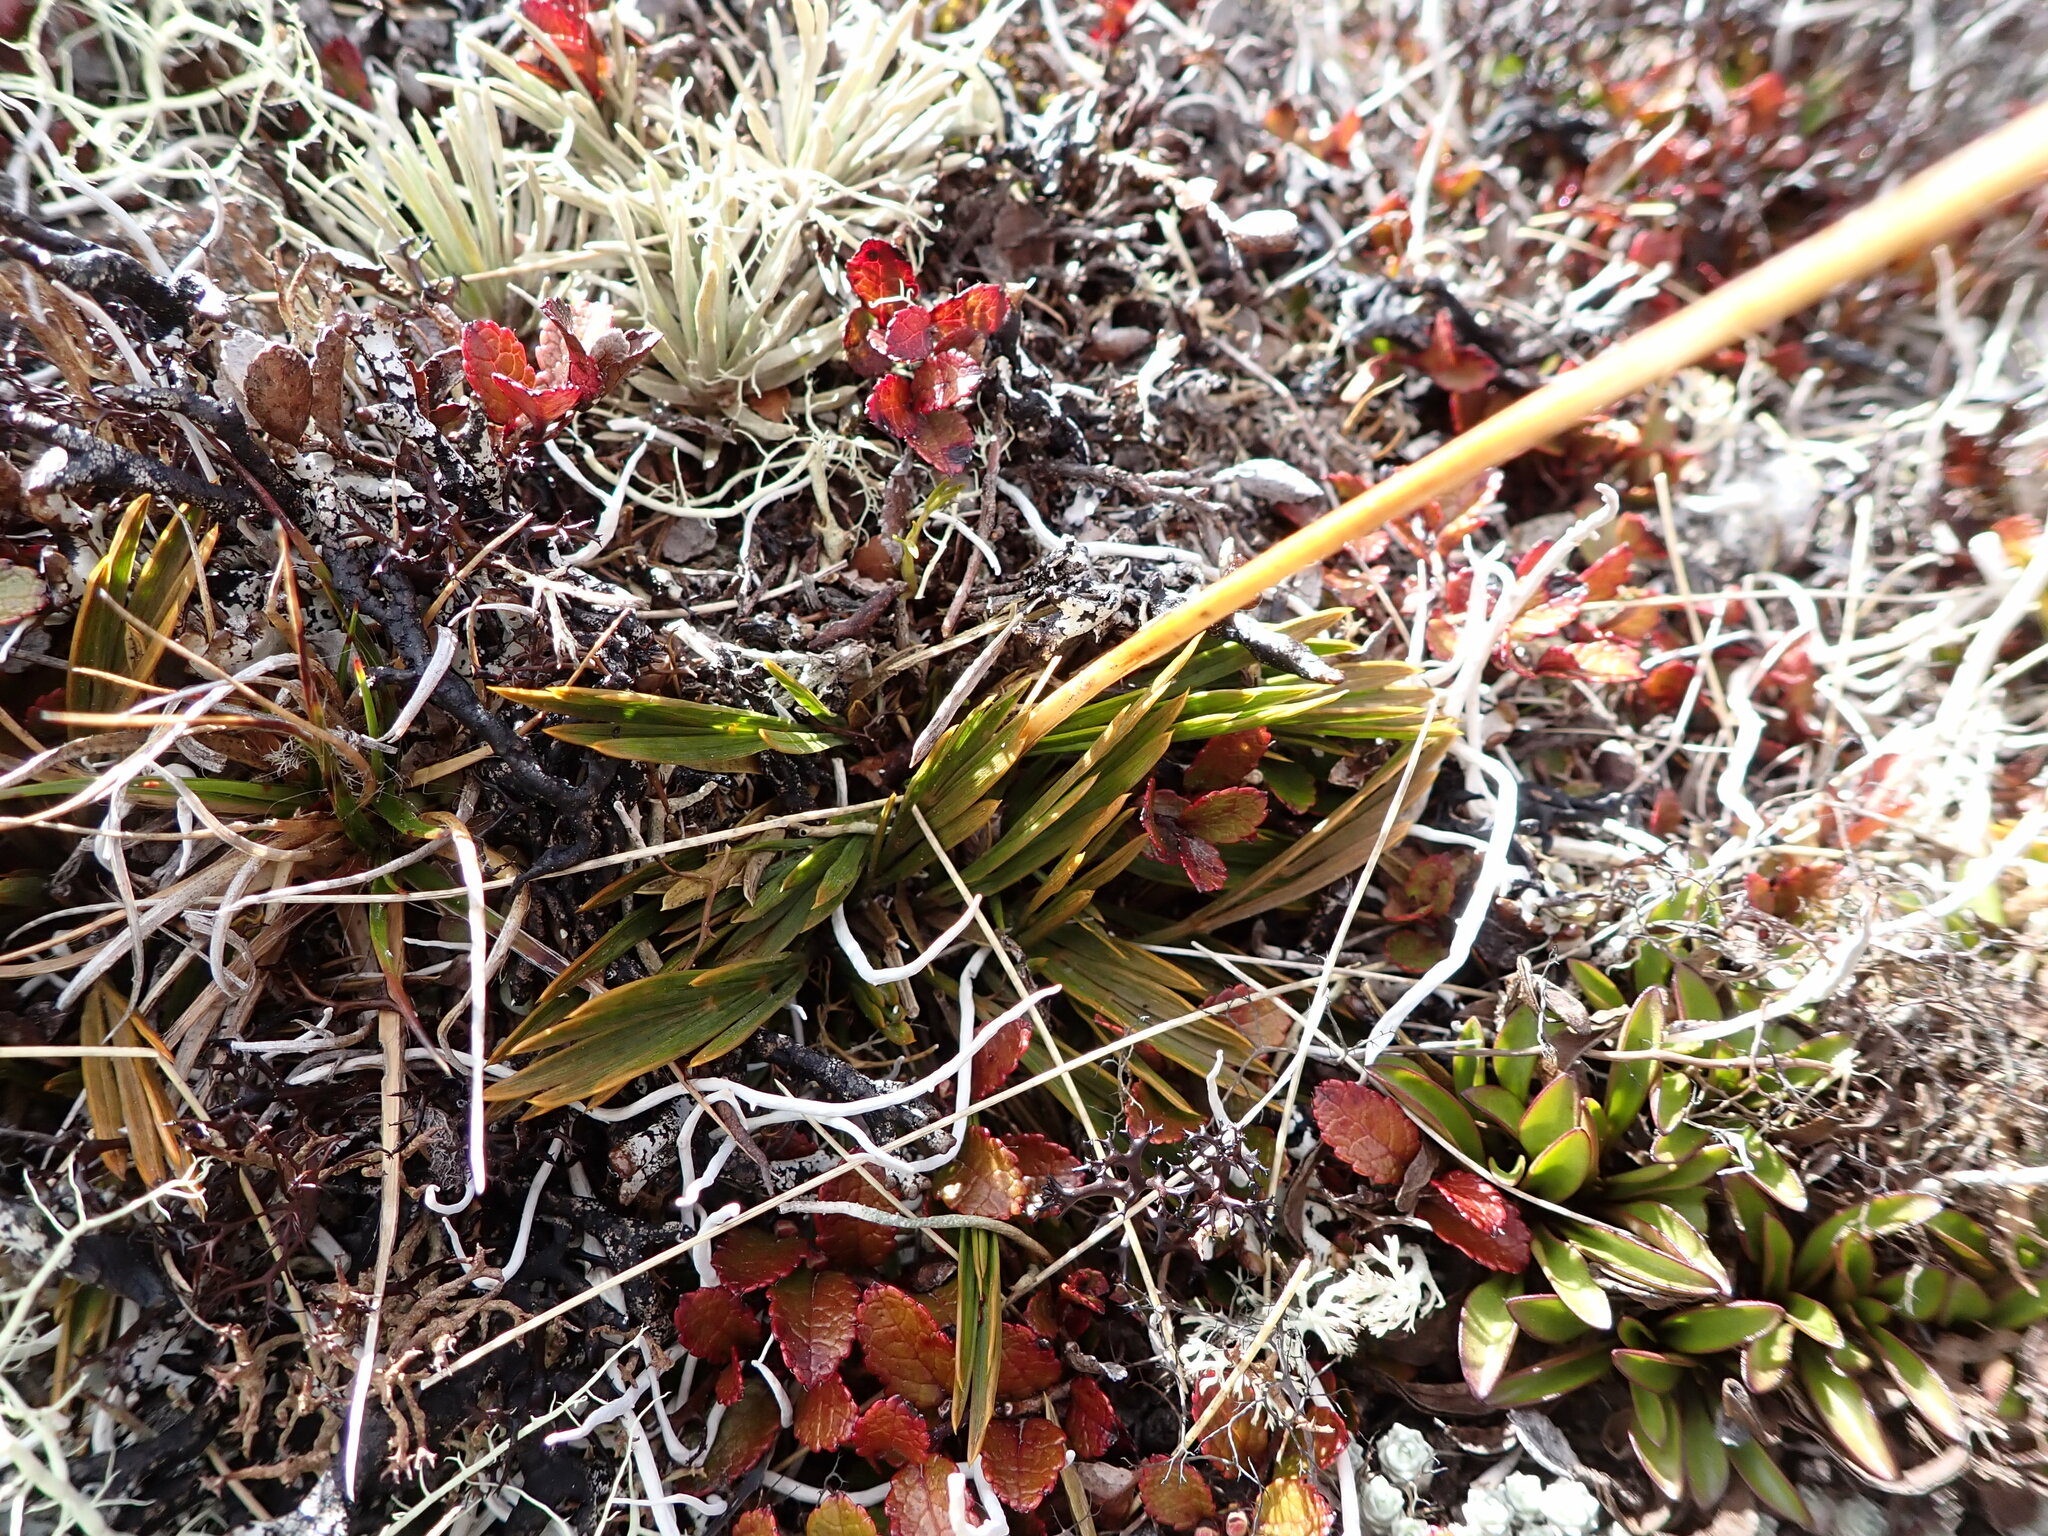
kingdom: Plantae
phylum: Tracheophyta
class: Magnoliopsida
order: Apiales
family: Apiaceae
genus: Aciphylla
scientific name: Aciphylla monroi
